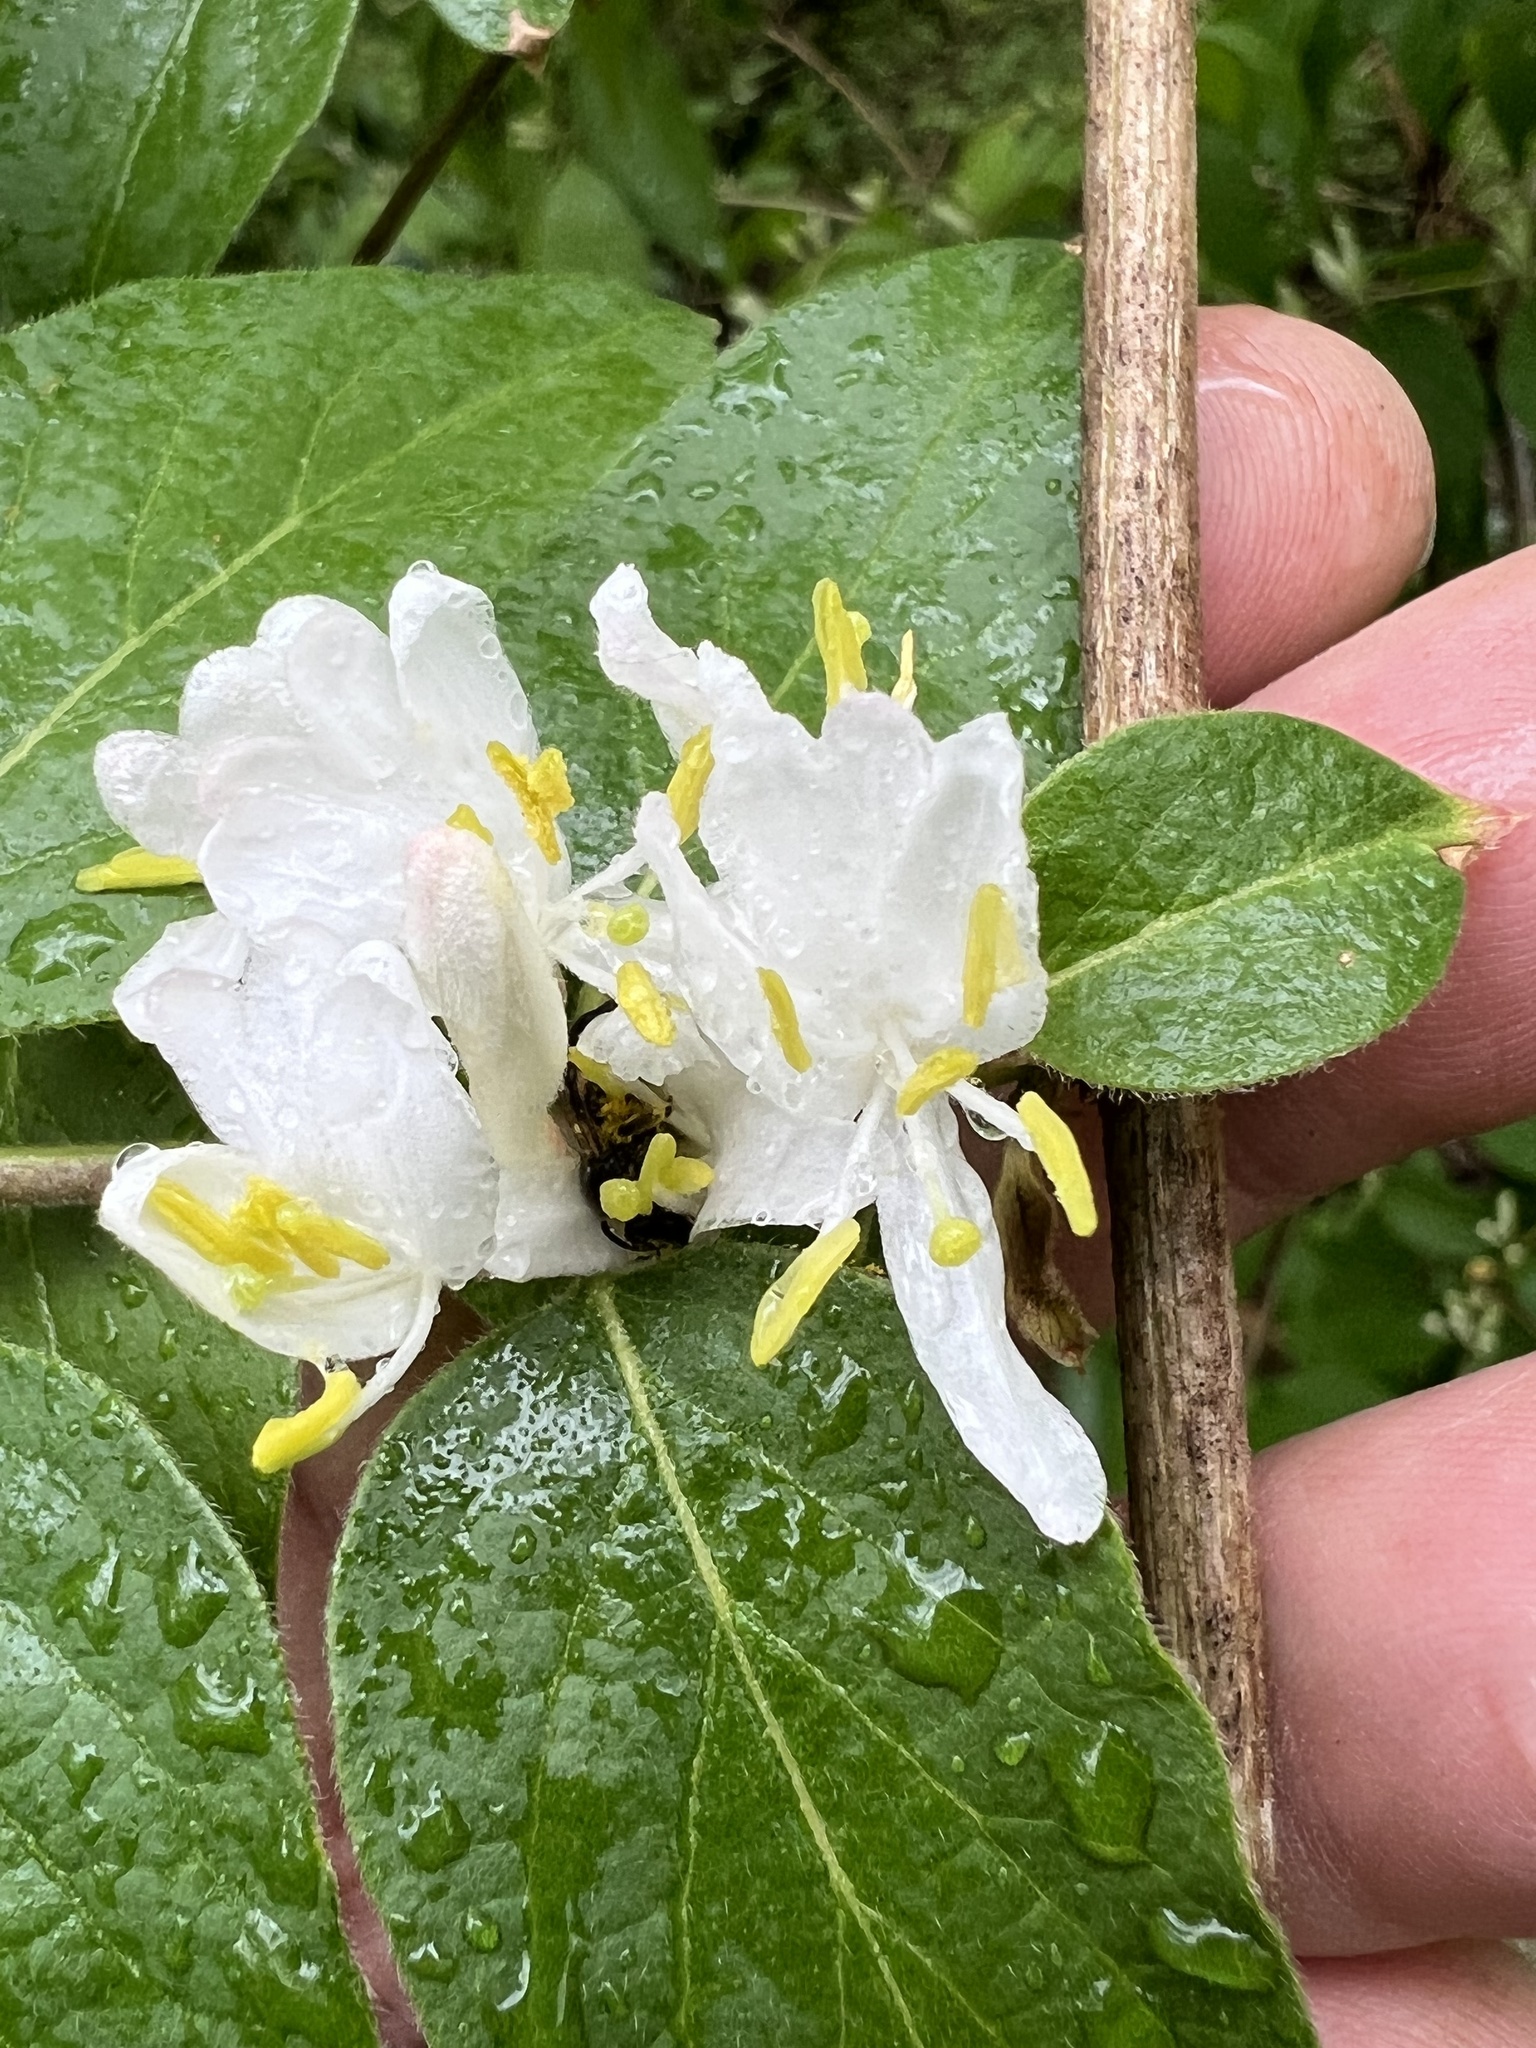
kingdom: Plantae
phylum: Tracheophyta
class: Magnoliopsida
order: Dipsacales
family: Caprifoliaceae
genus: Lonicera
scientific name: Lonicera maackii
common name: Amur honeysuckle
